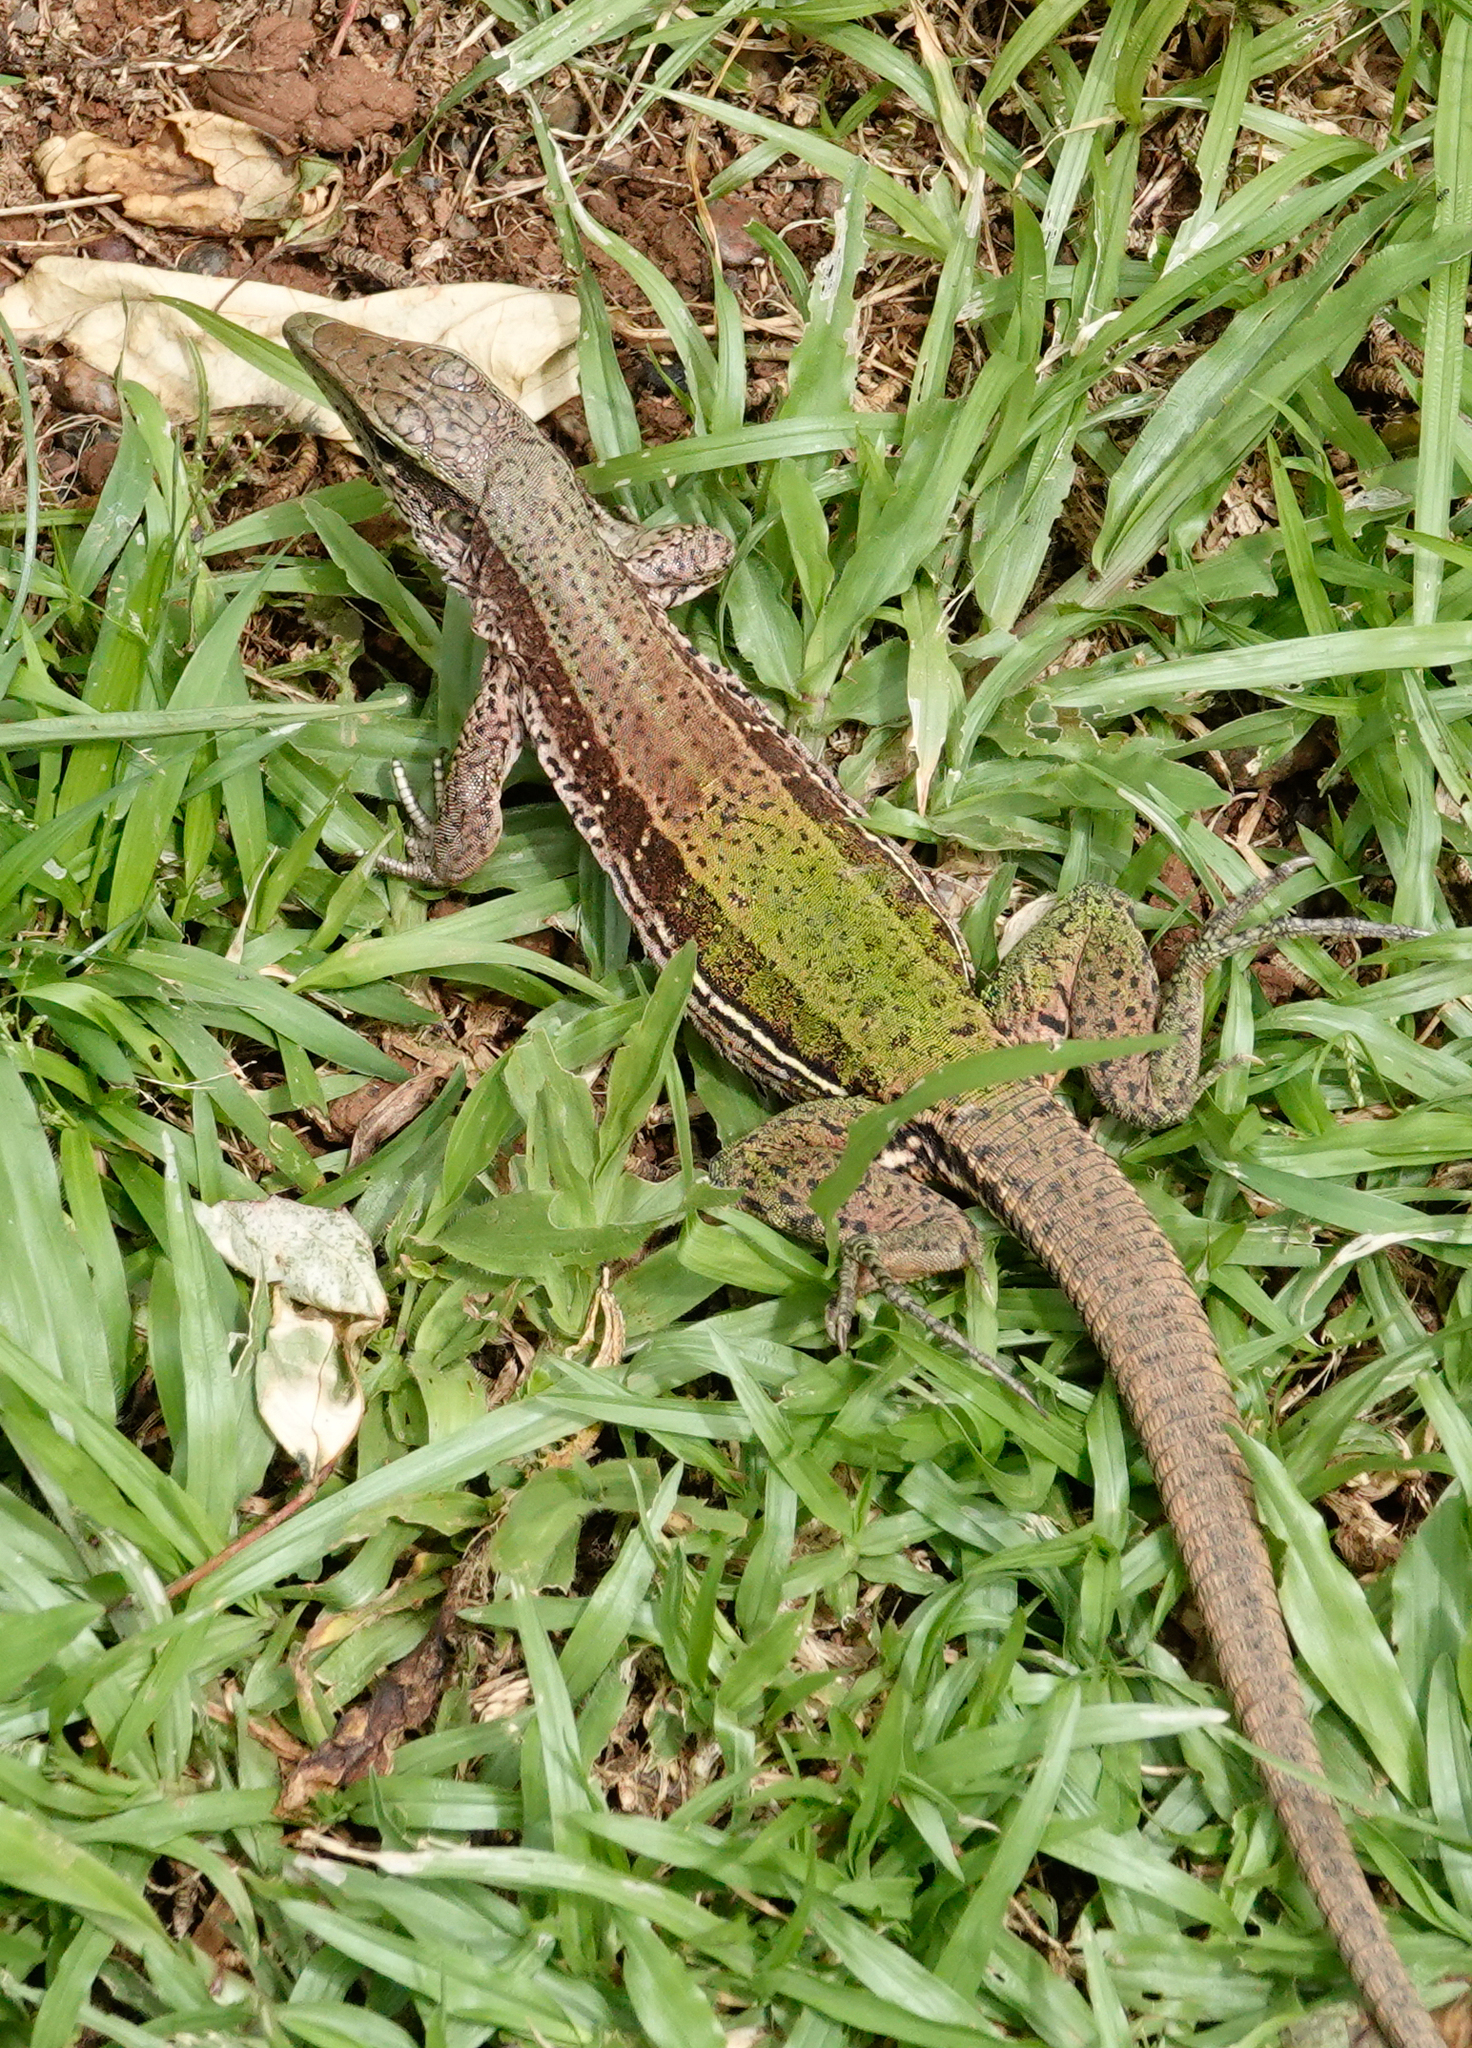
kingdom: Animalia
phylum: Chordata
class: Squamata
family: Teiidae
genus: Ameiva
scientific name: Ameiva ameiva
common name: Giant ameiva
